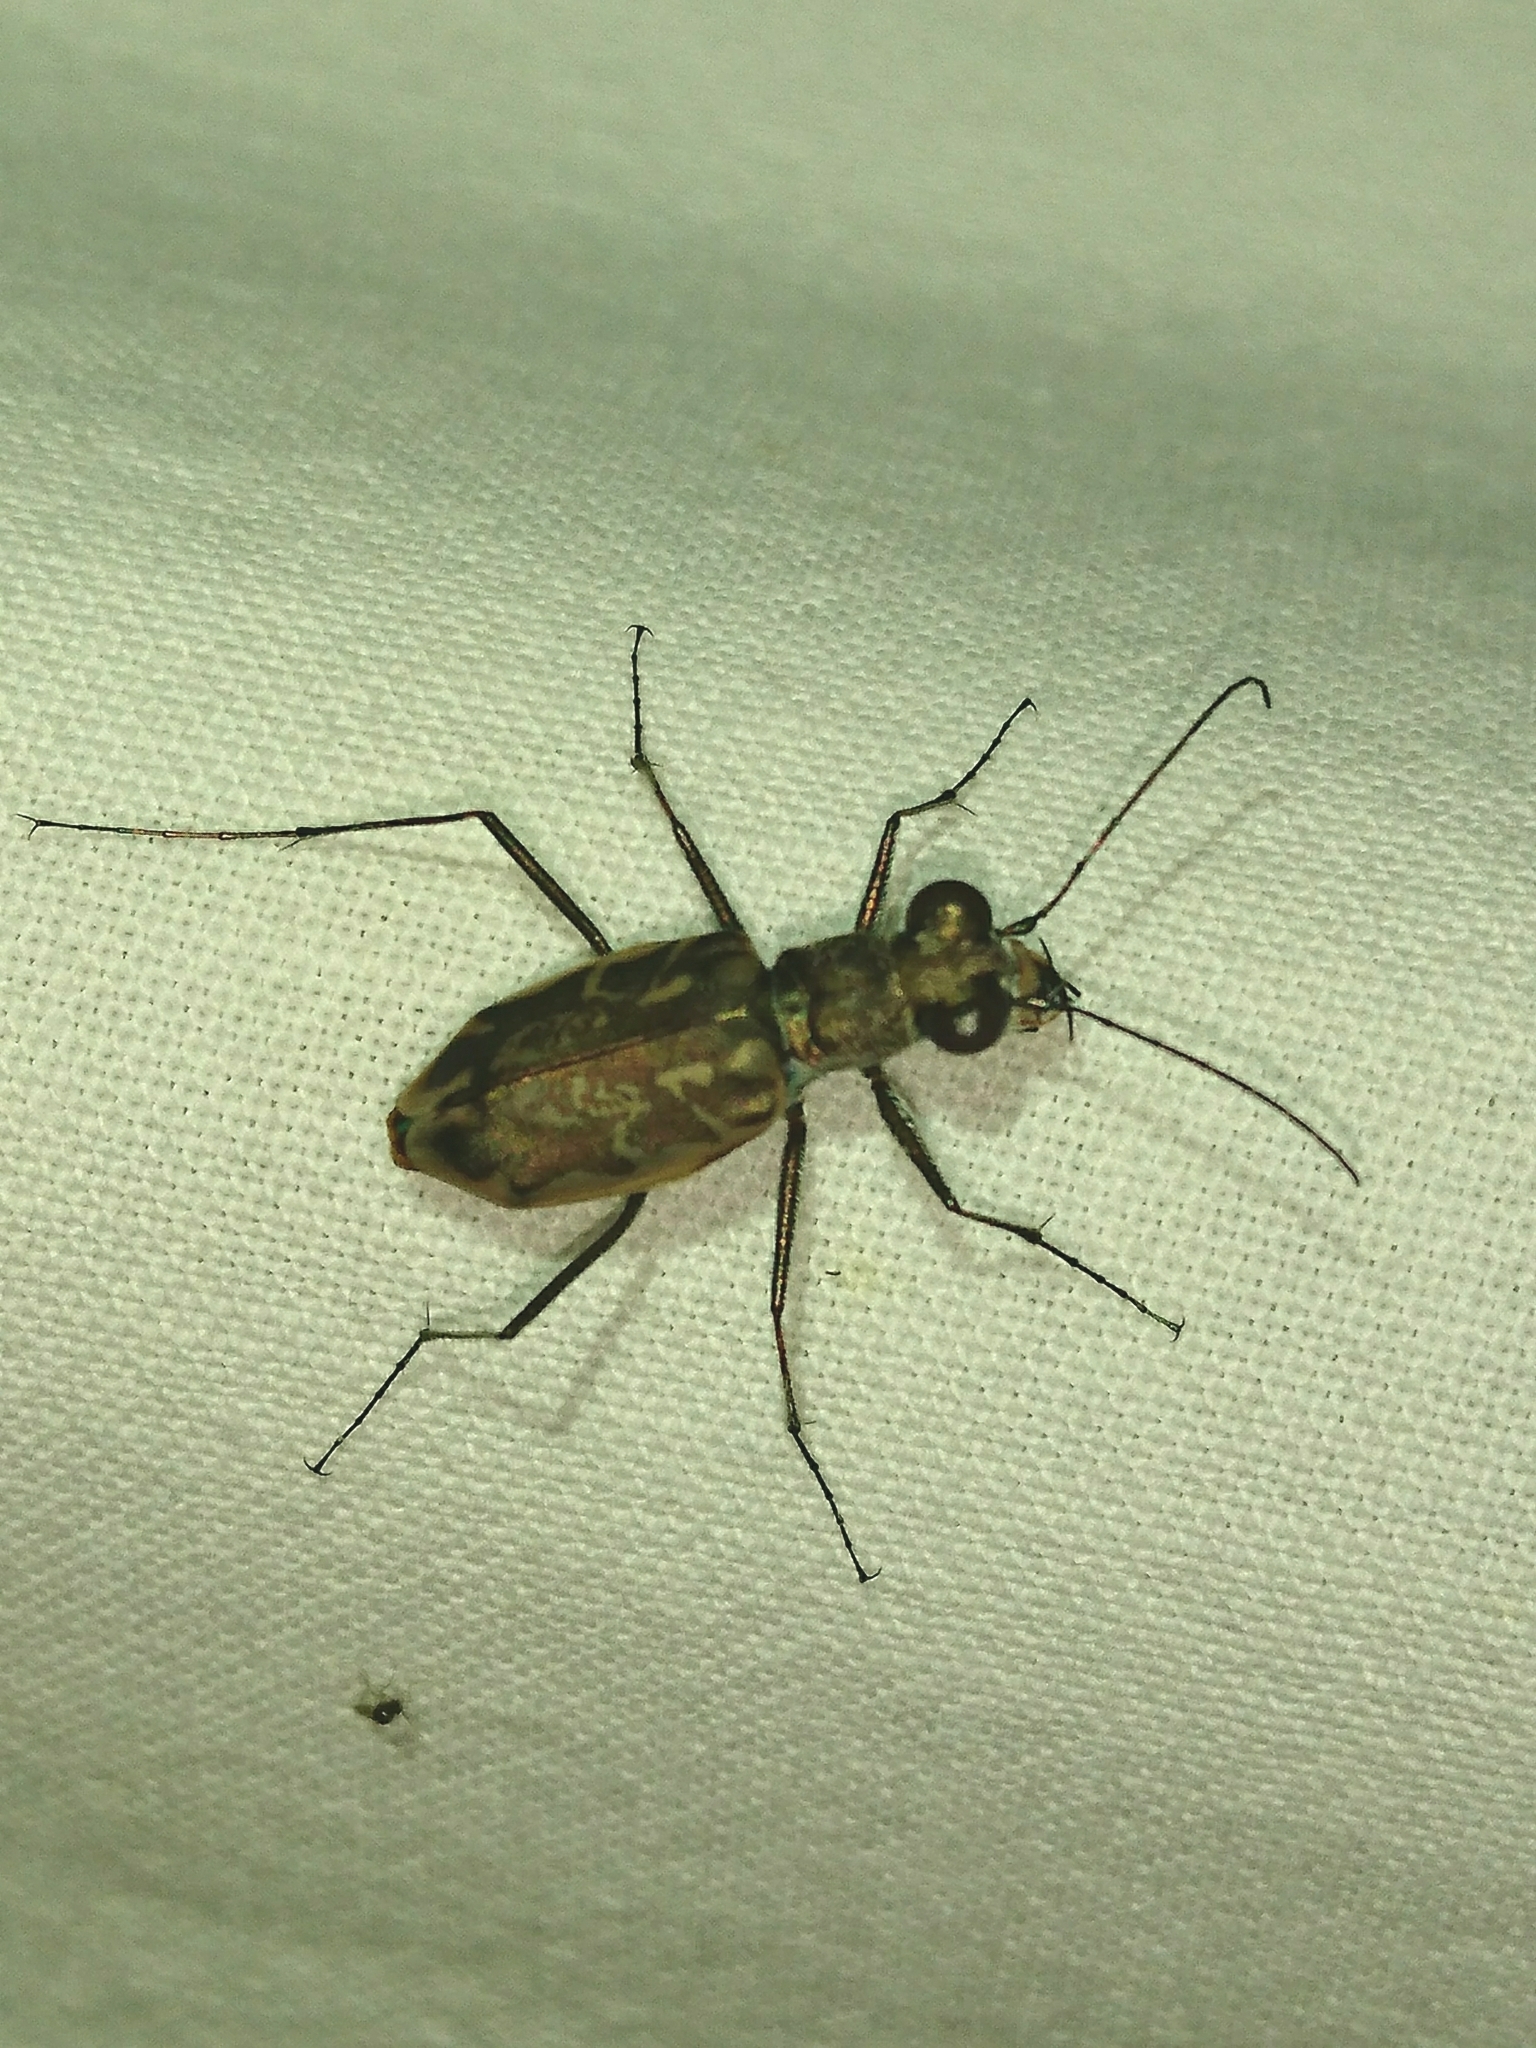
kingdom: Animalia
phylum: Arthropoda
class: Insecta
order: Coleoptera
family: Carabidae
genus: Ellipsoptera
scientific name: Ellipsoptera hamata
